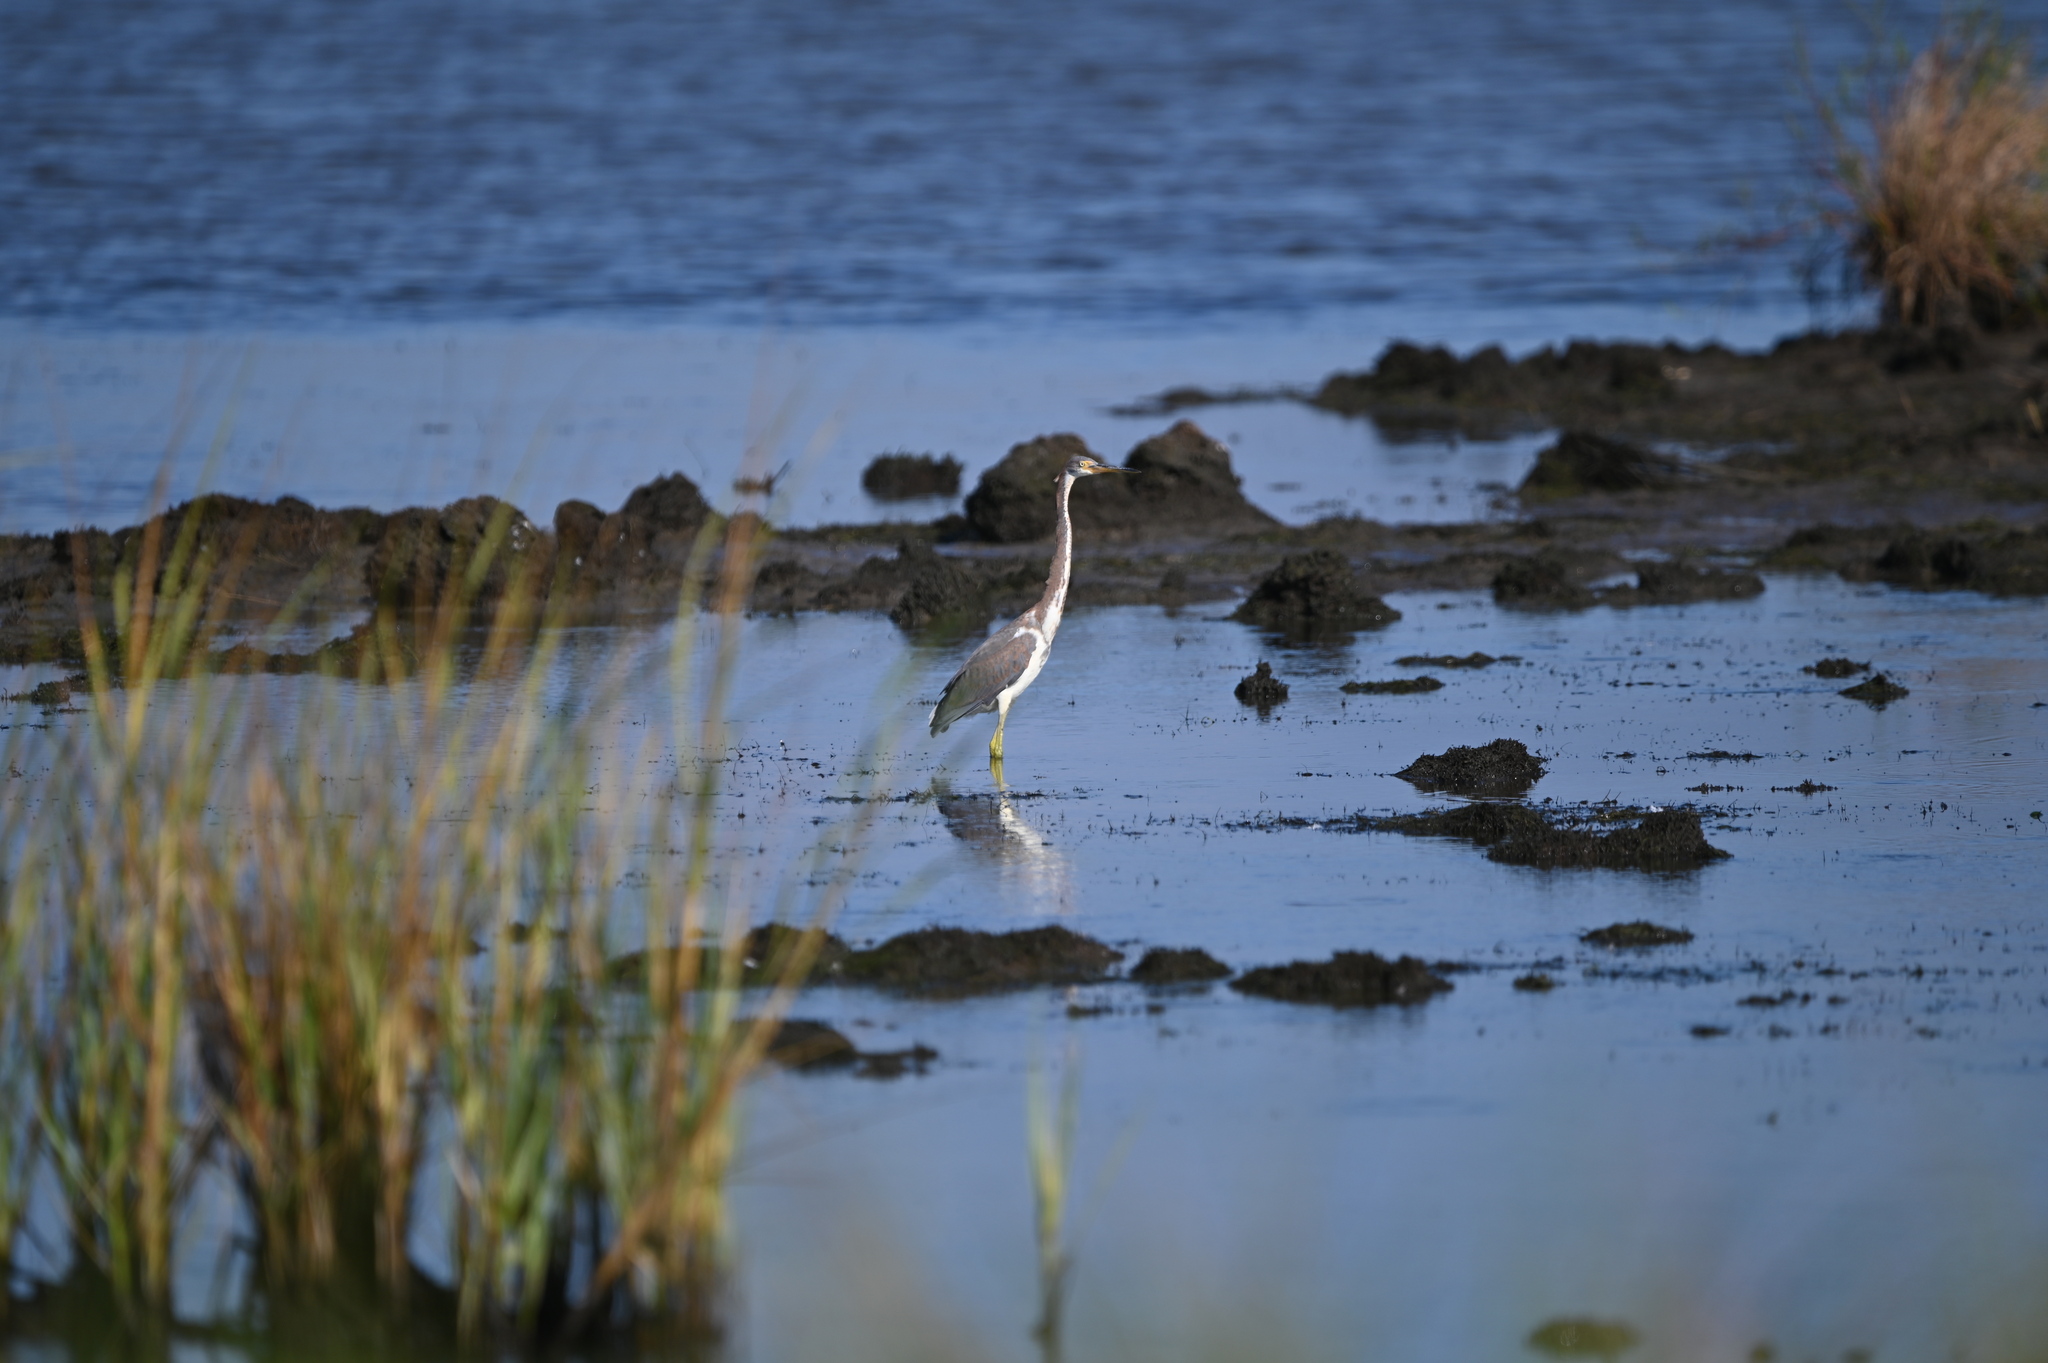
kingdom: Animalia
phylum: Chordata
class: Aves
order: Pelecaniformes
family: Ardeidae
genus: Egretta
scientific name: Egretta tricolor
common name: Tricolored heron
